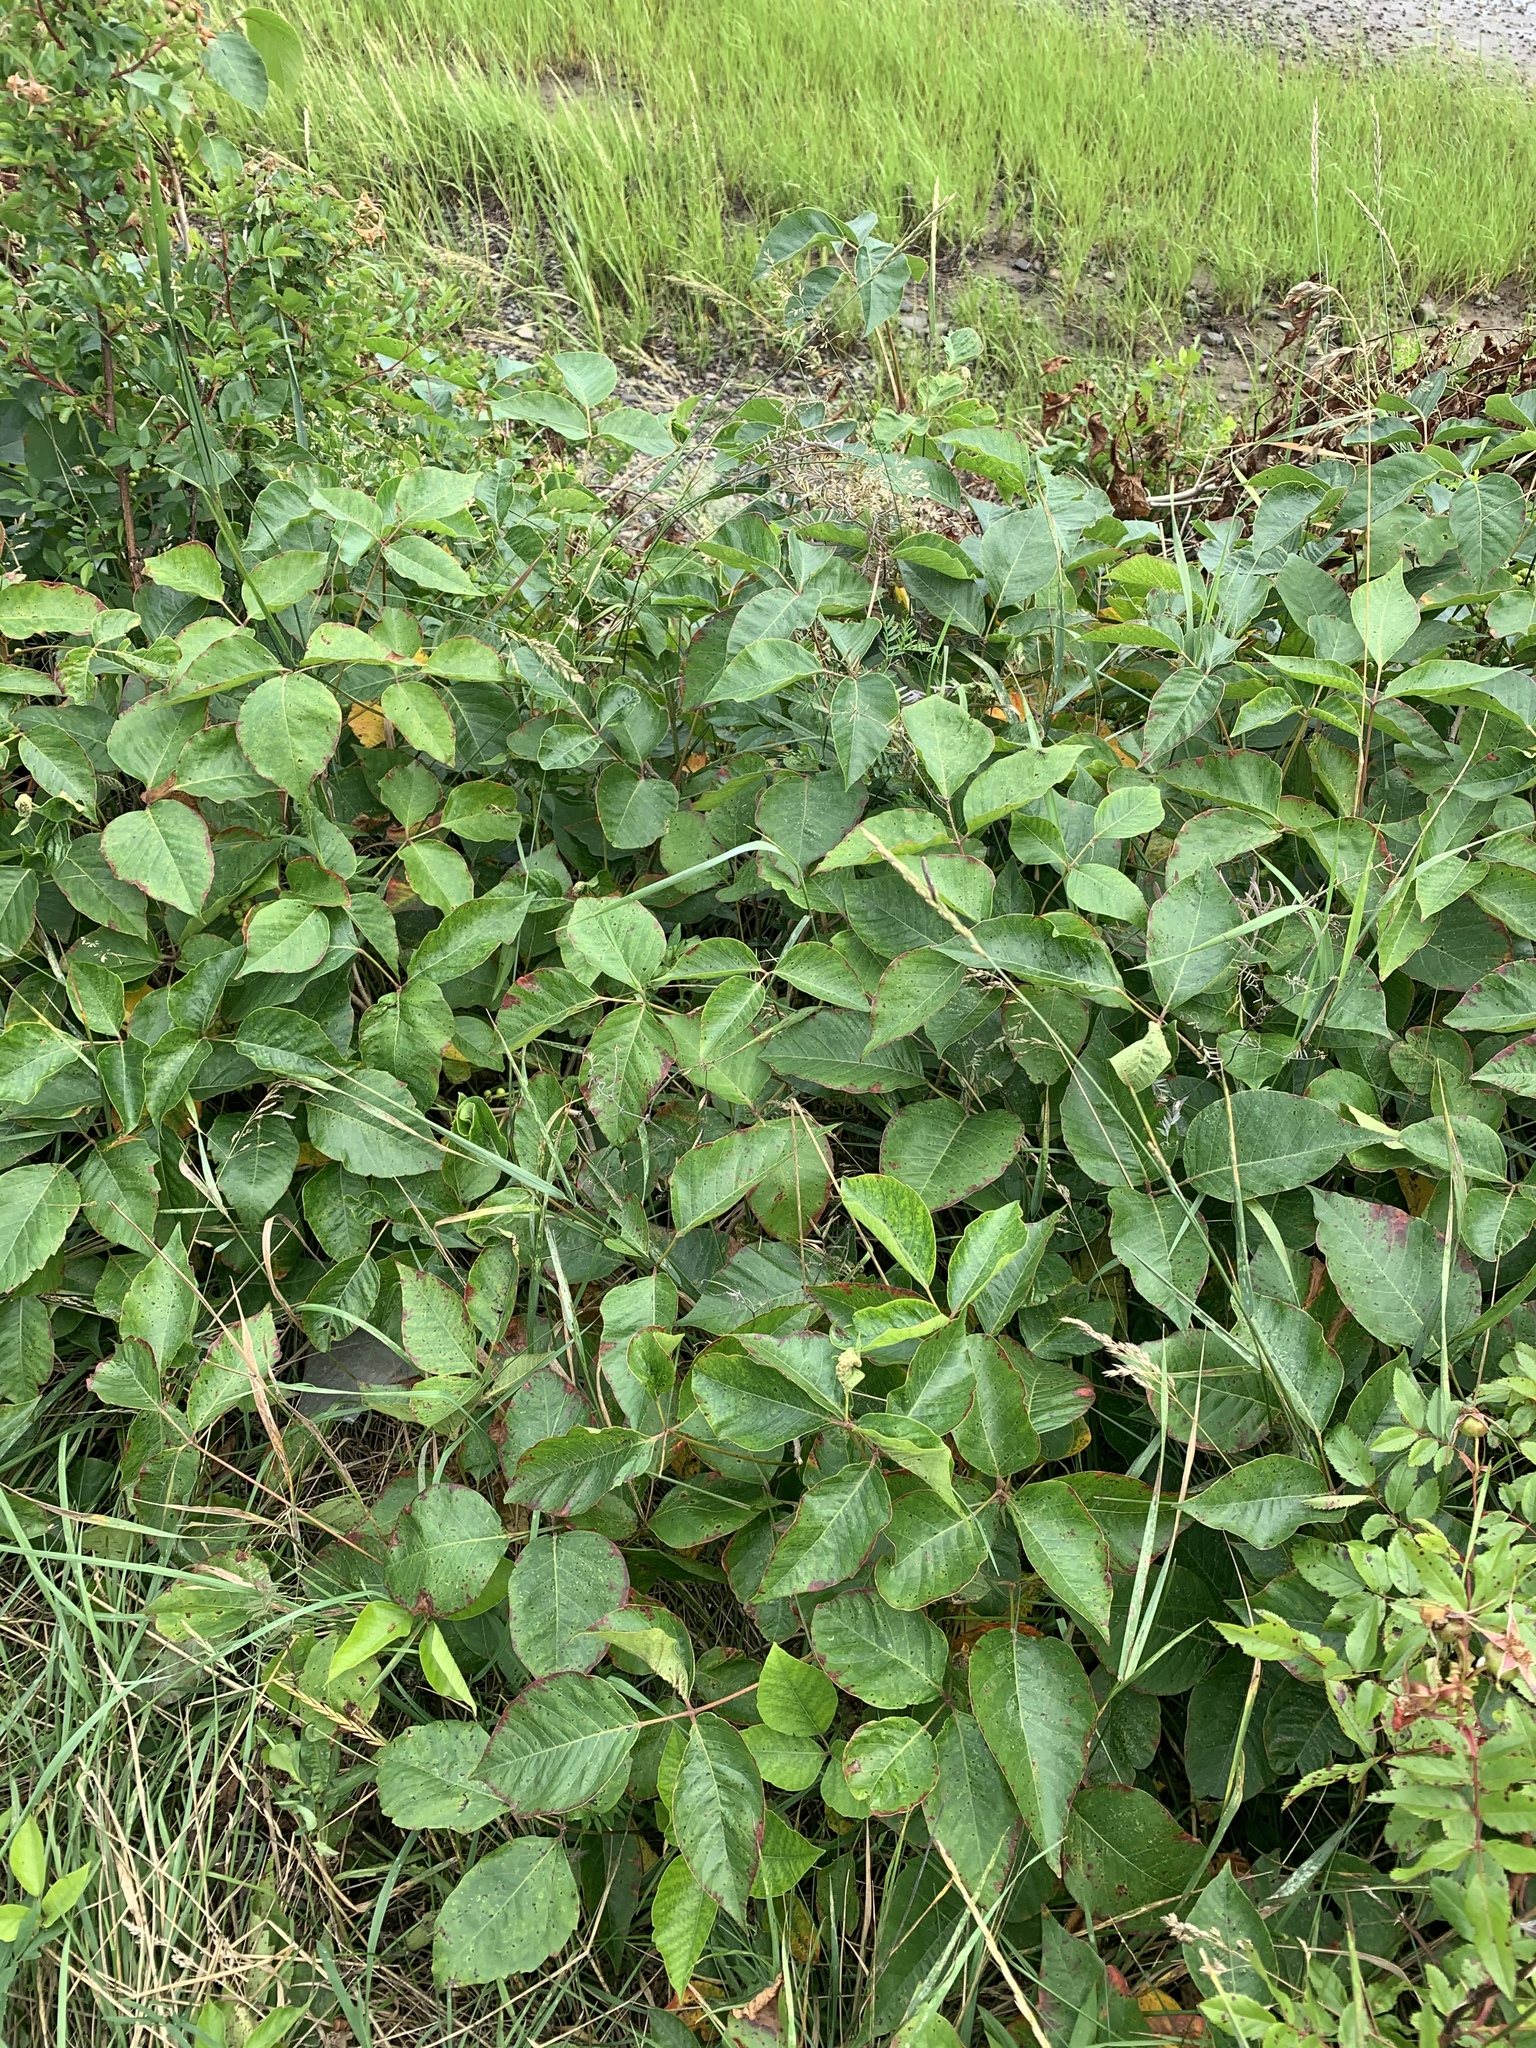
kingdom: Plantae
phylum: Tracheophyta
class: Magnoliopsida
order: Sapindales
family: Anacardiaceae
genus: Toxicodendron
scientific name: Toxicodendron rydbergii
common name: Rydberg's poison-ivy
